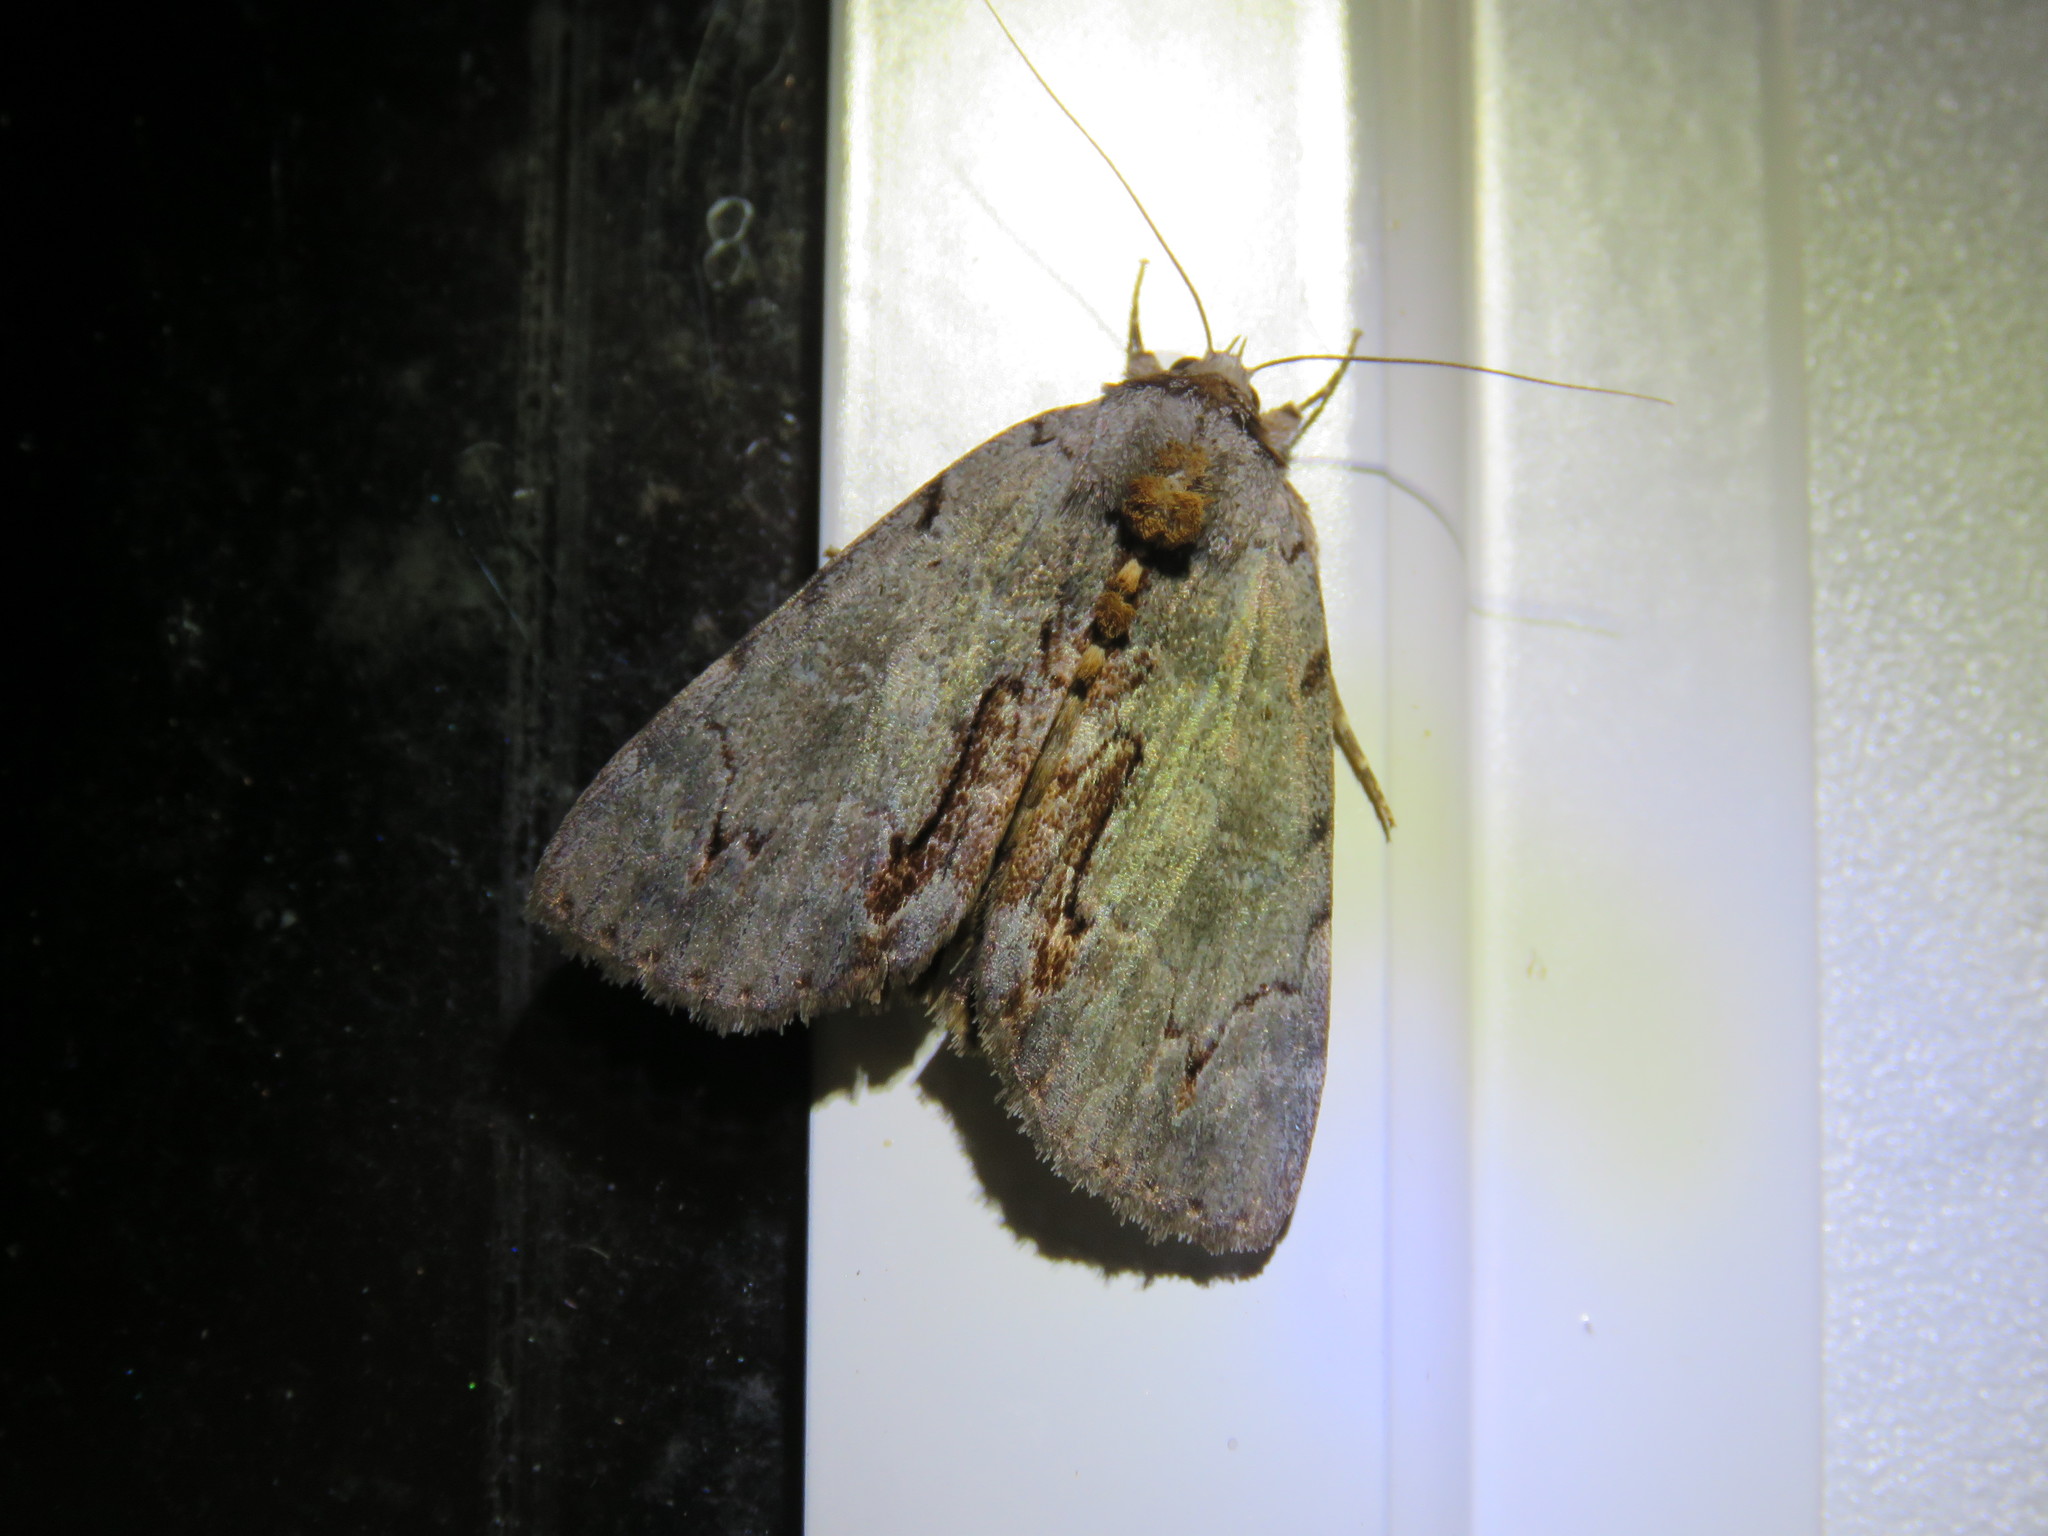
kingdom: Animalia
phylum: Arthropoda
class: Insecta
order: Lepidoptera
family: Erebidae
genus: Catocala
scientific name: Catocala grynea
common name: Woody underwing
